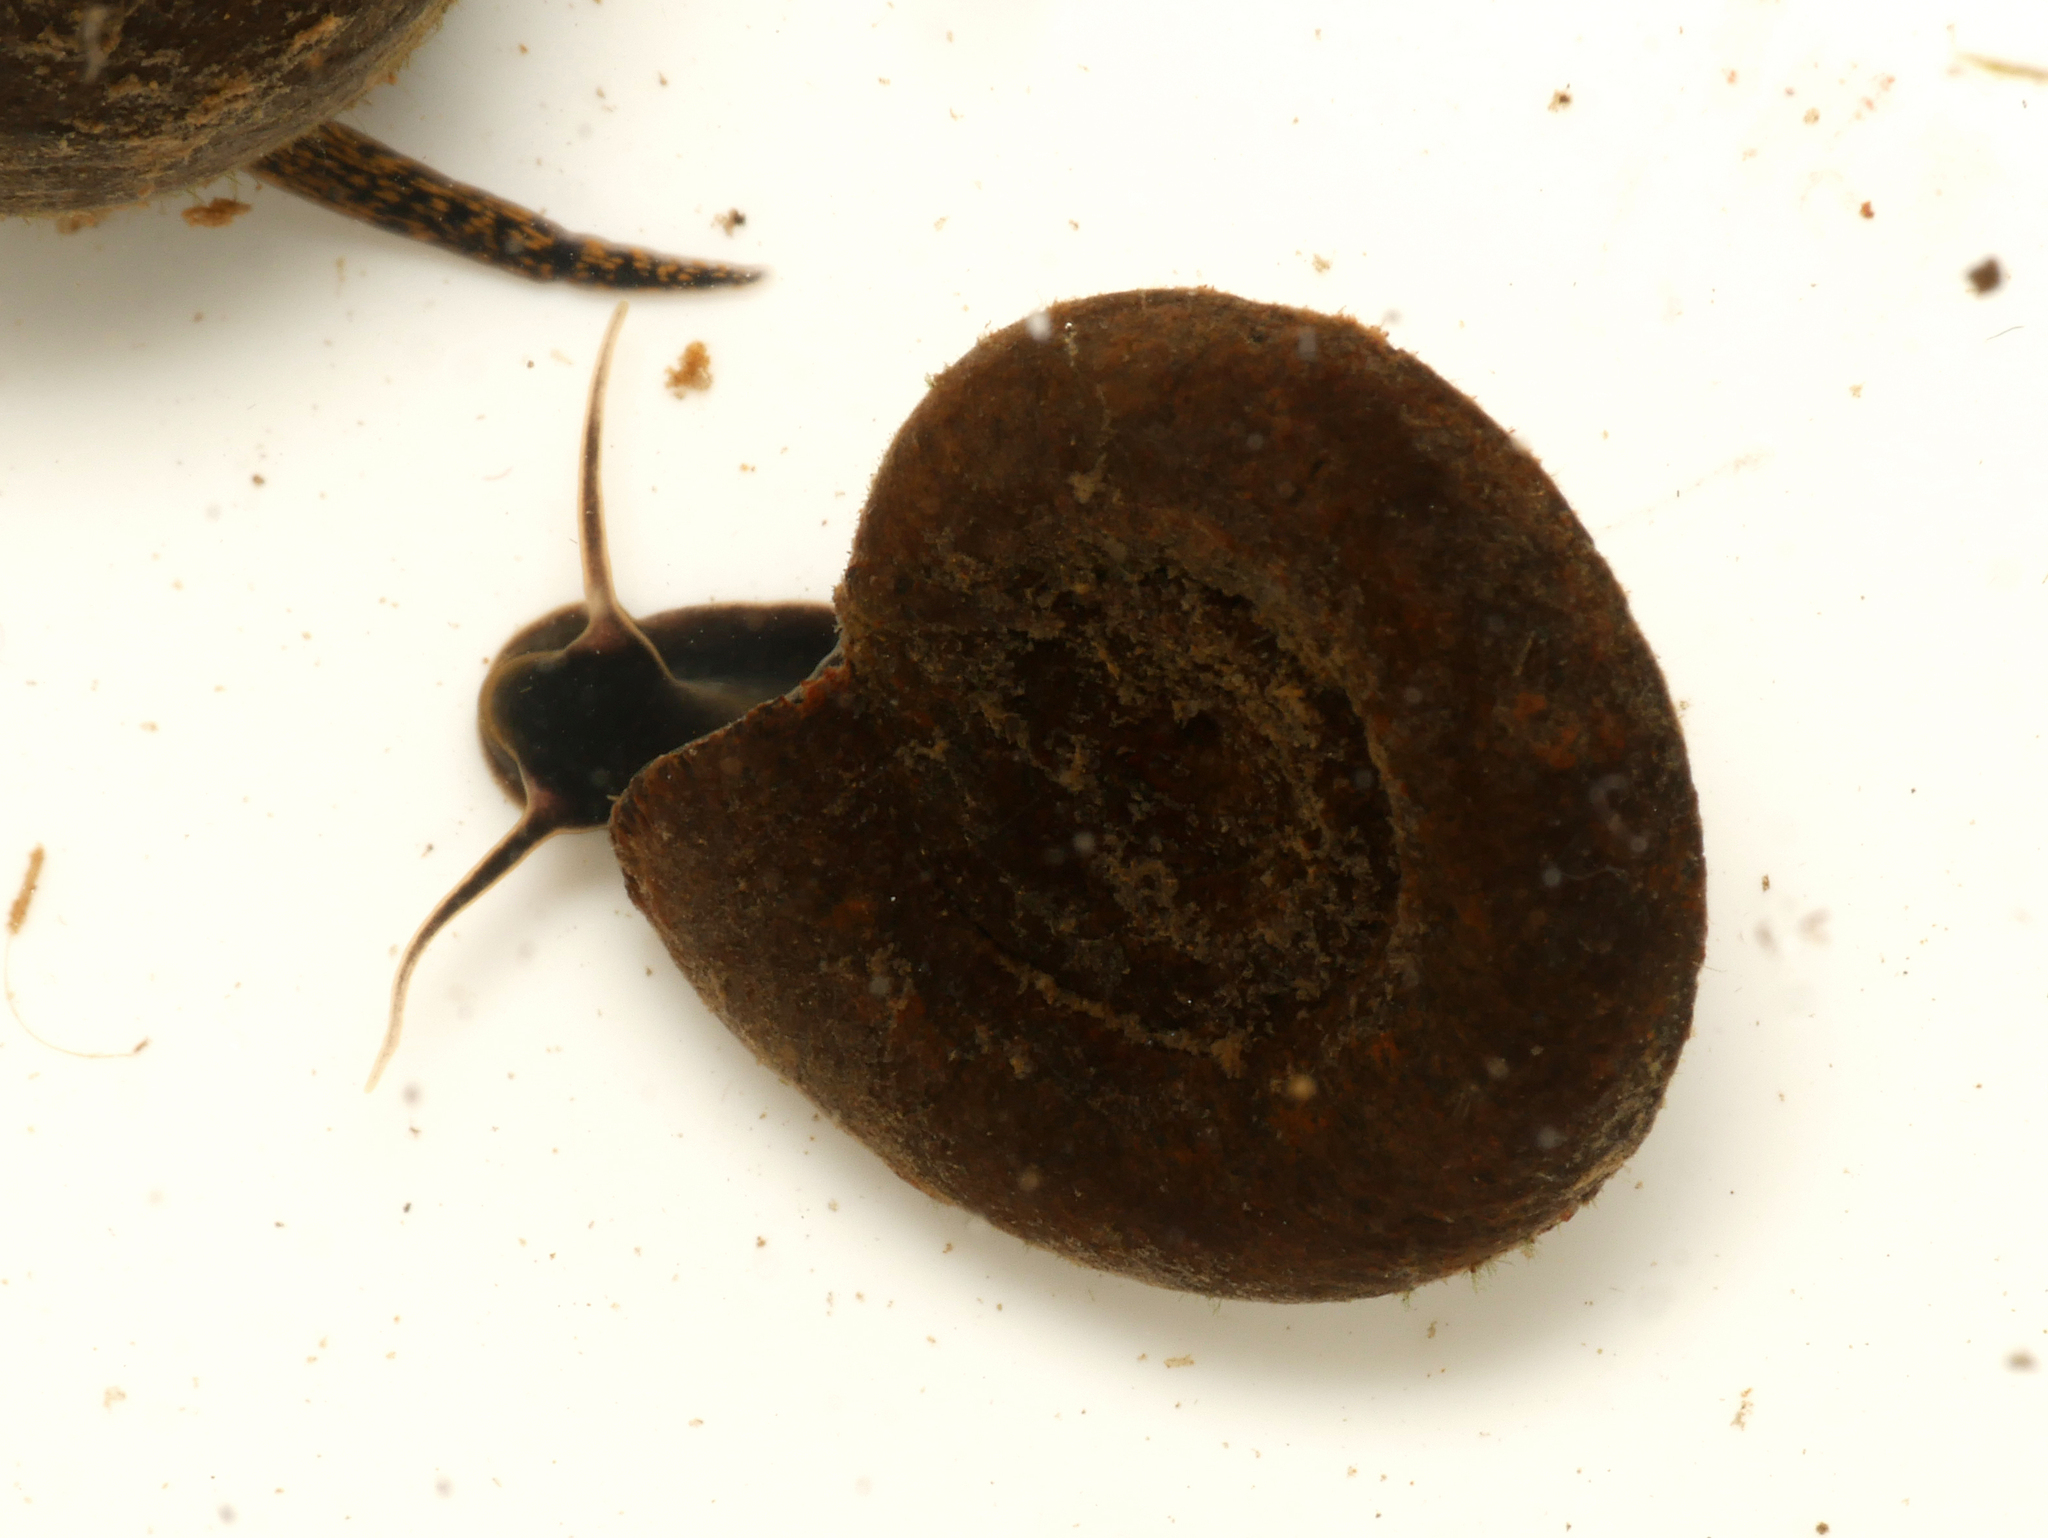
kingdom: Animalia
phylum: Mollusca
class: Gastropoda
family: Planorbidae
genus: Planorbarius
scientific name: Planorbarius corneus
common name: Great ramshorn
